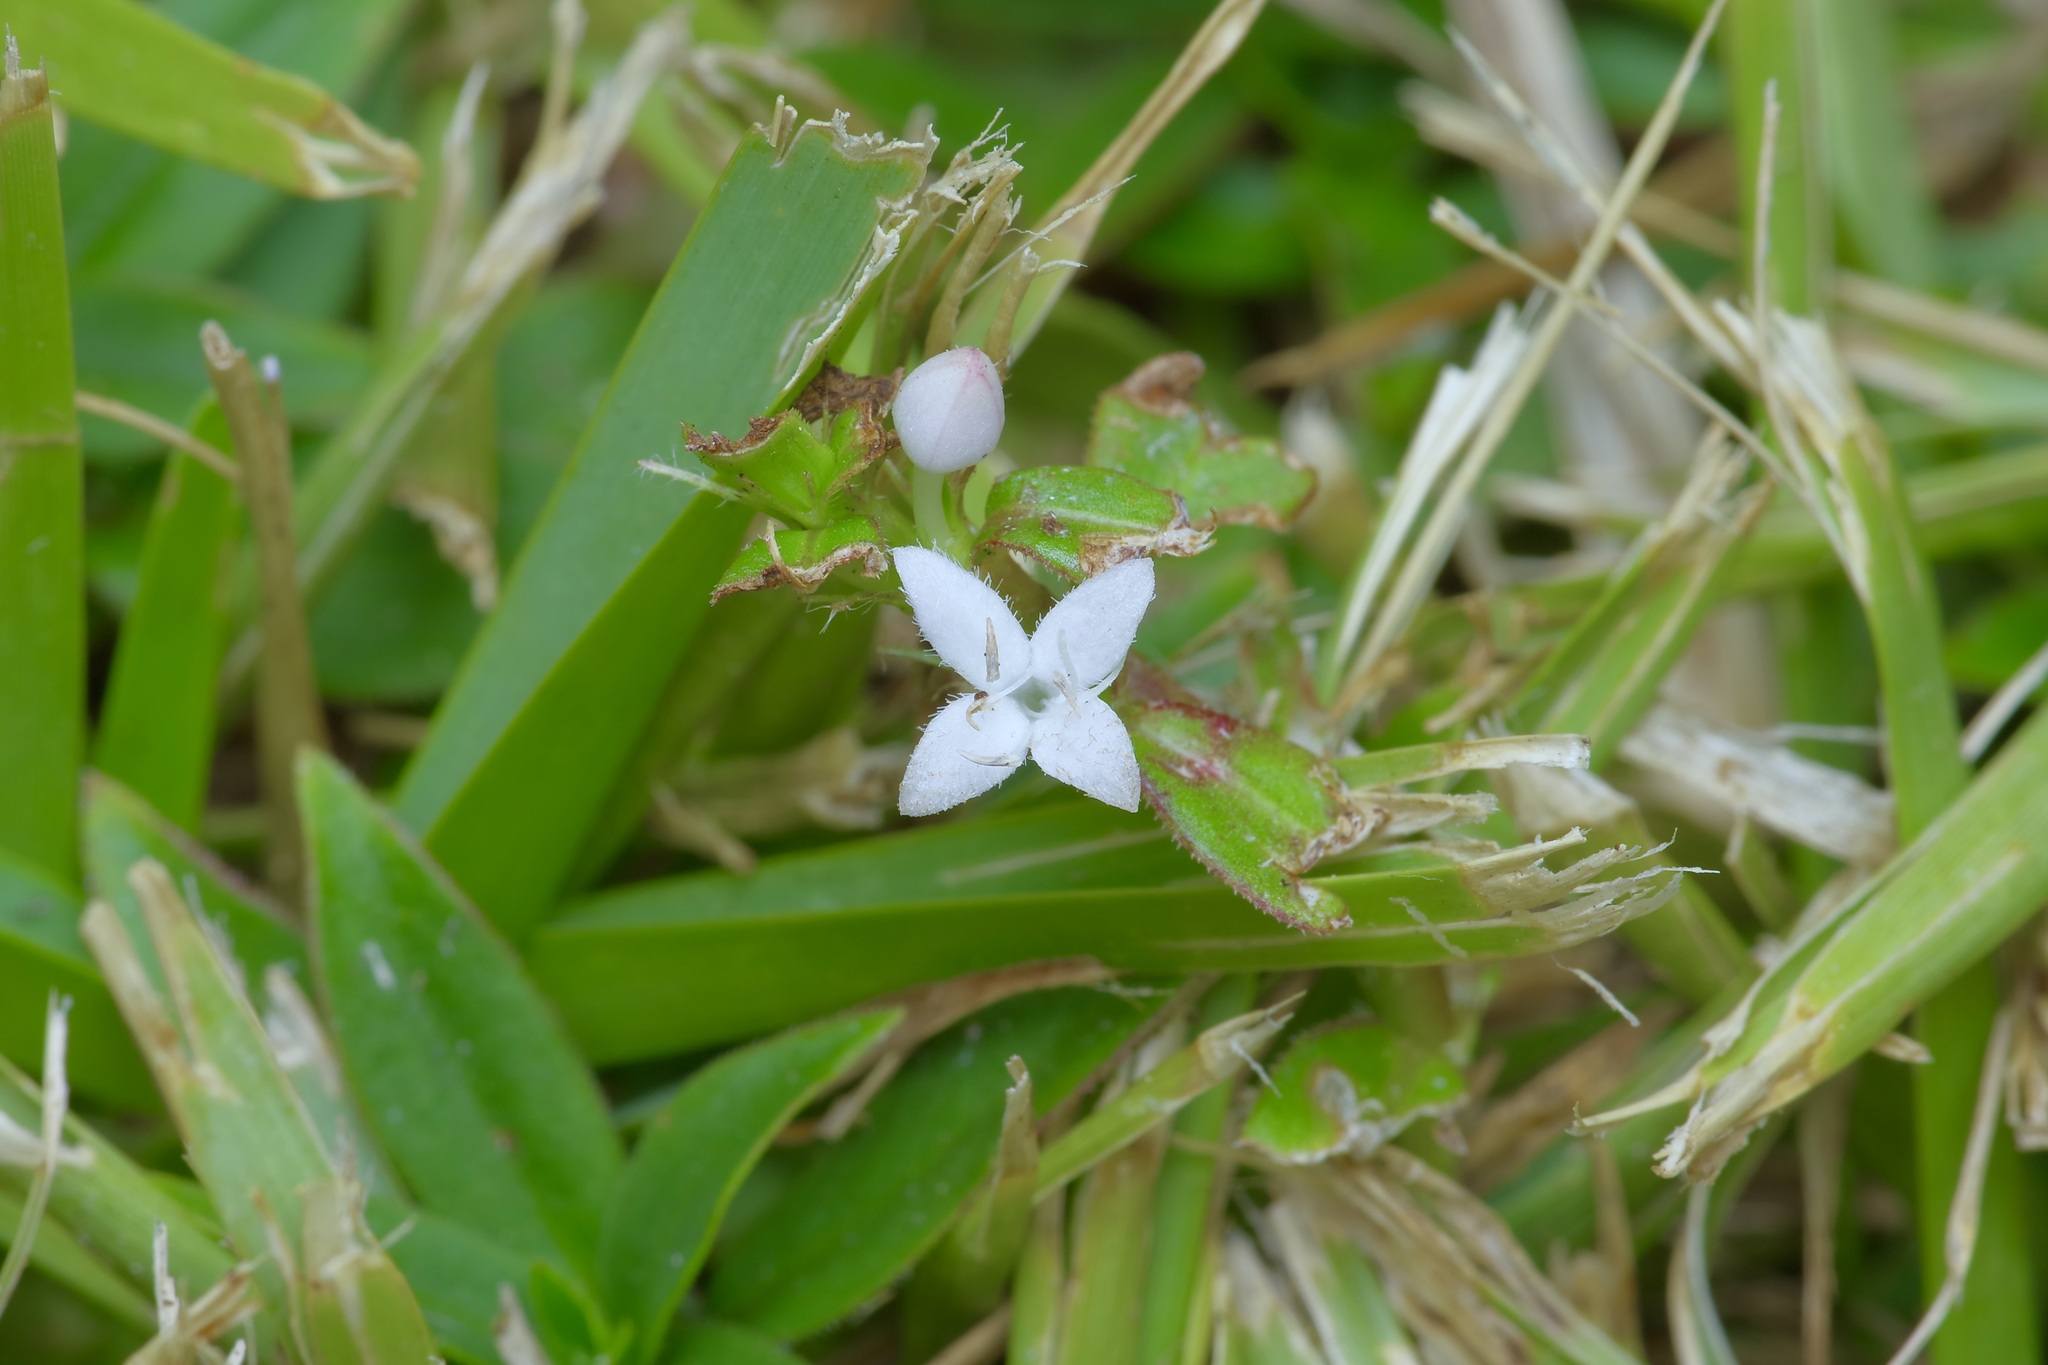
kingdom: Plantae
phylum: Tracheophyta
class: Magnoliopsida
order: Gentianales
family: Rubiaceae
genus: Diodia
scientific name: Diodia virginiana
